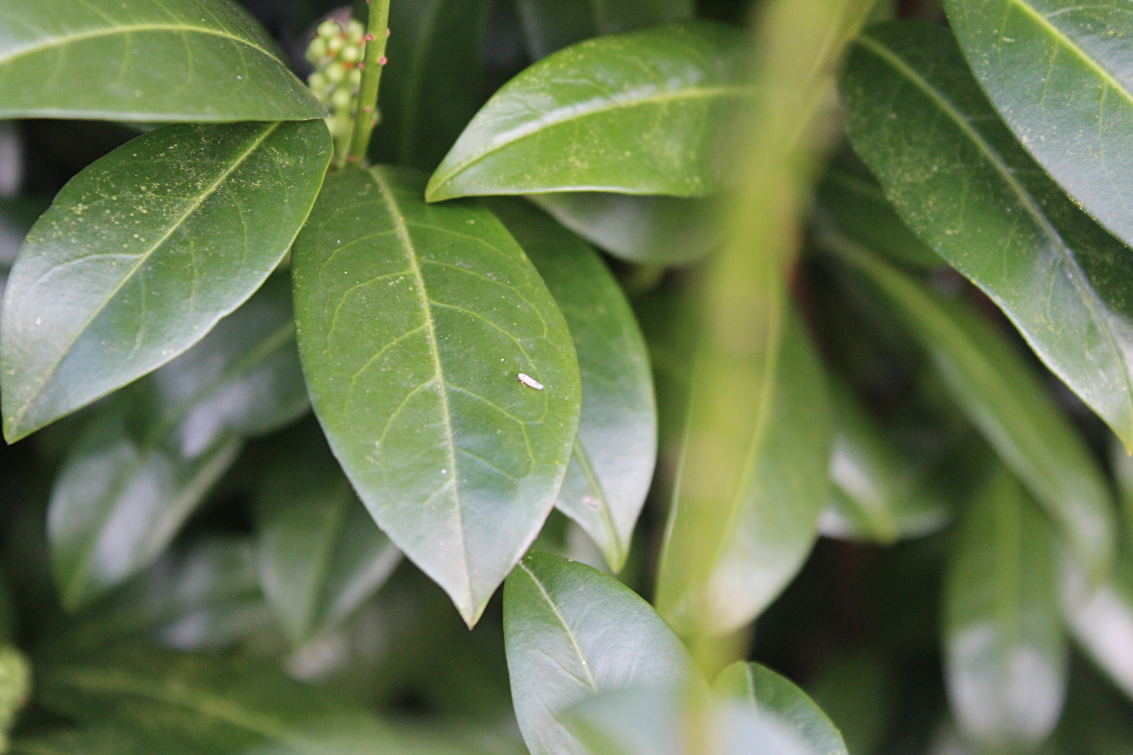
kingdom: Animalia
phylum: Arthropoda
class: Insecta
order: Hemiptera
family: Cicadellidae
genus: Zygina
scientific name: Zygina flammigera
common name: Leafhopper
